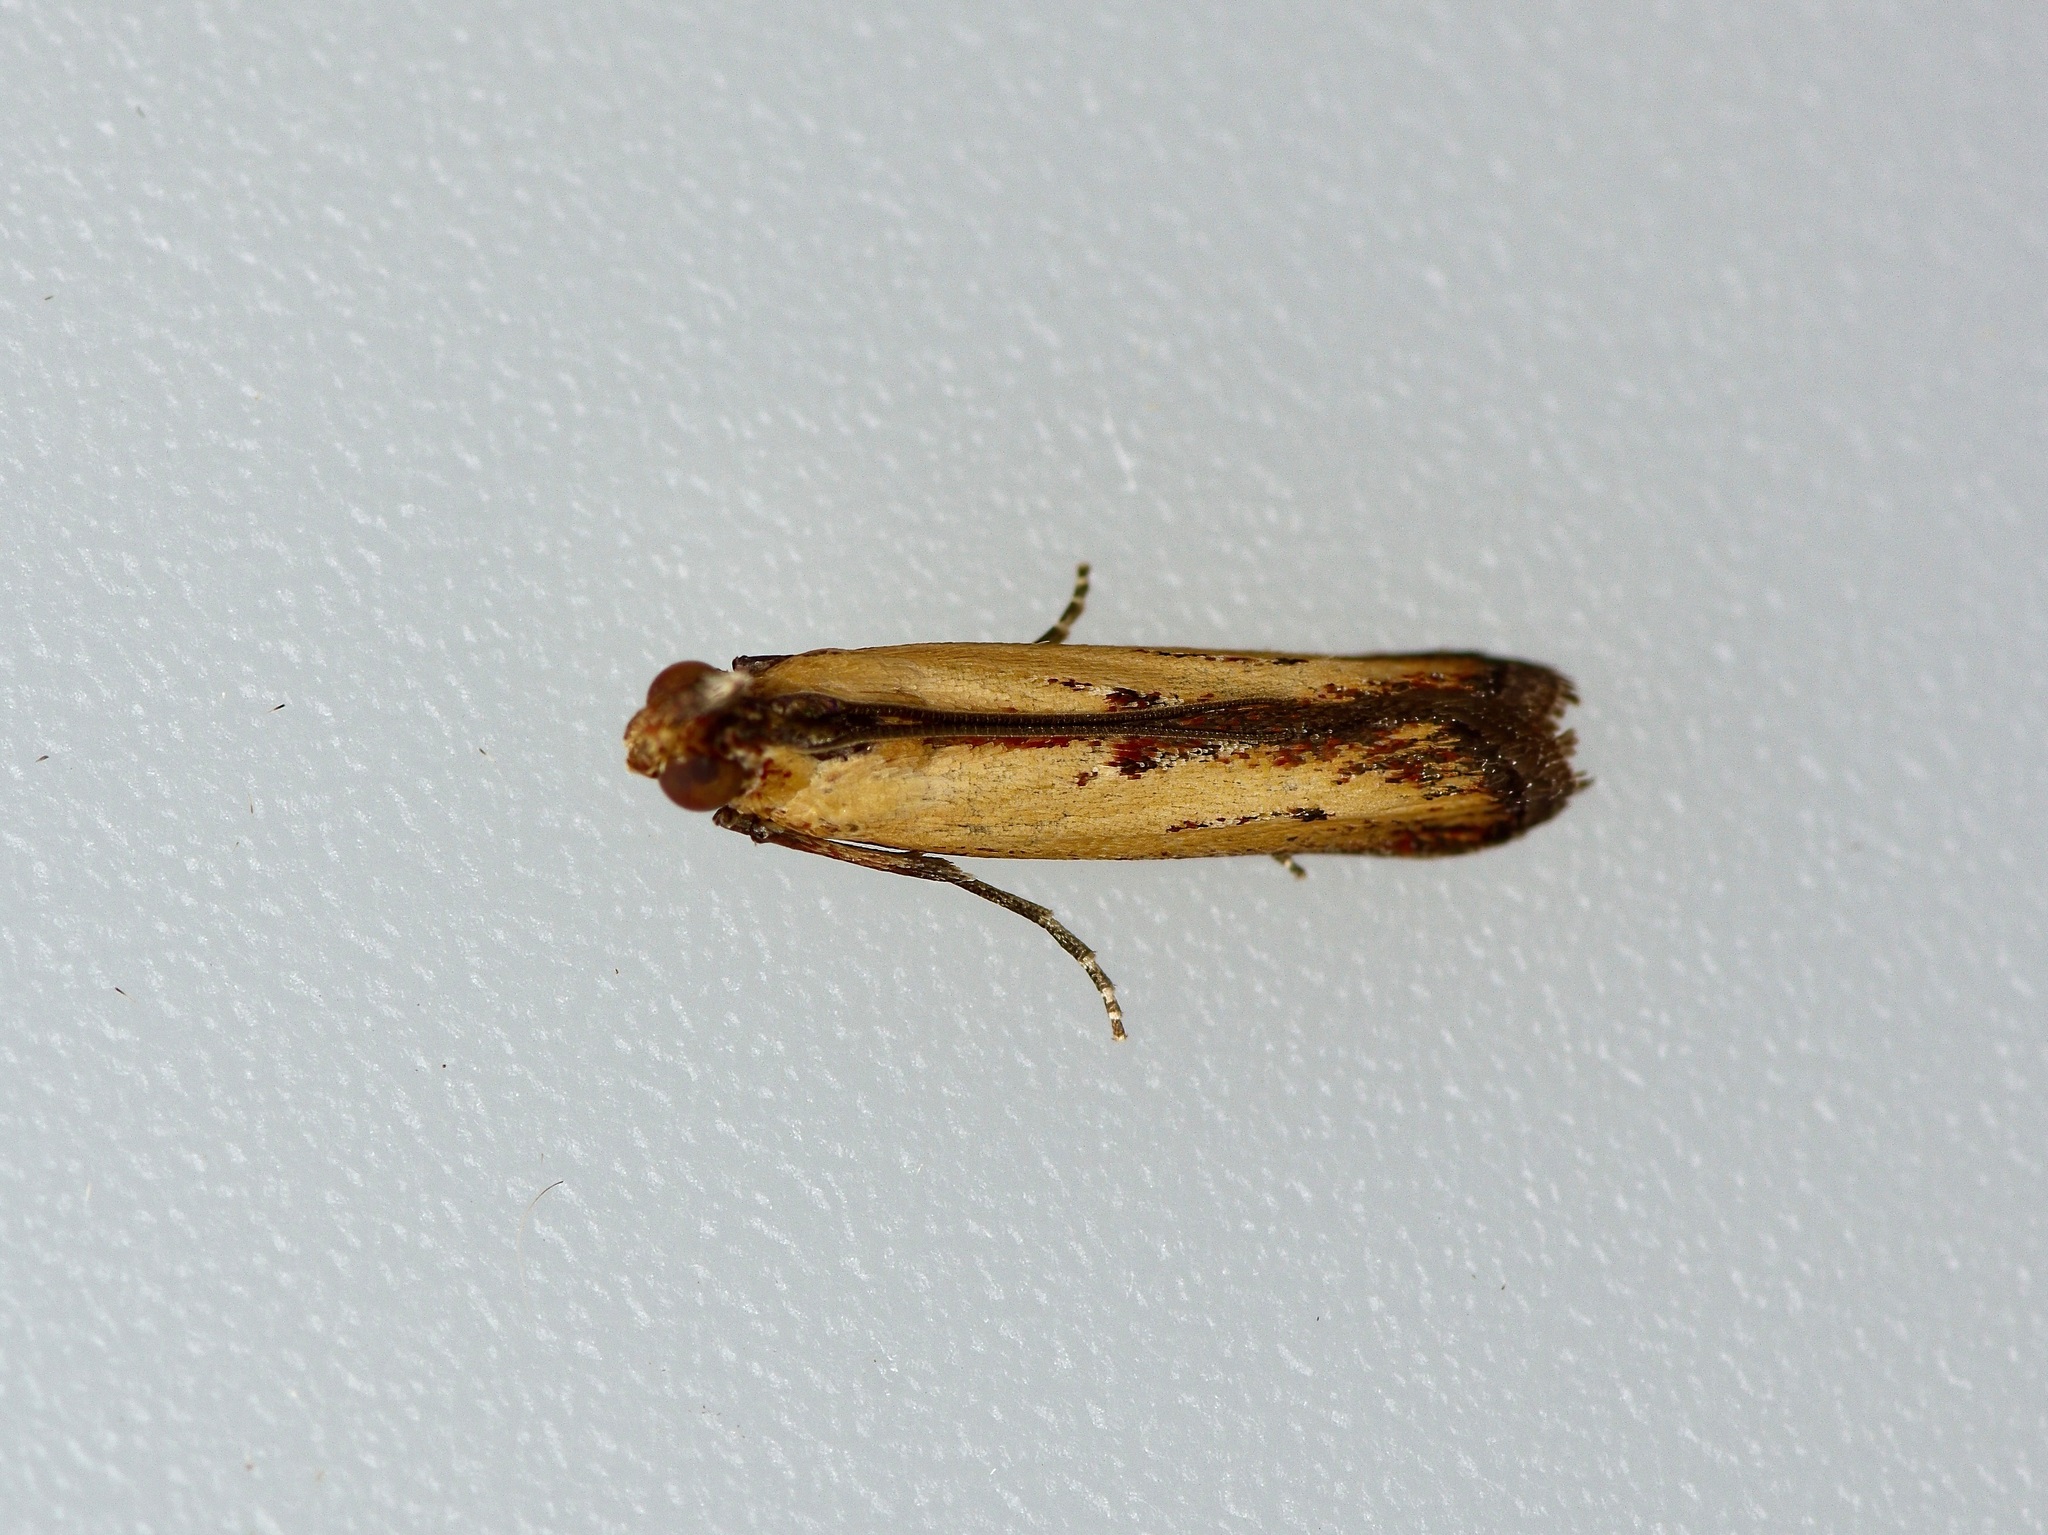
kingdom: Animalia
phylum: Arthropoda
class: Insecta
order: Lepidoptera
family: Pyralidae
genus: Elasmopalpus
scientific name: Elasmopalpus lignosella
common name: Lesser cornstalk borer
